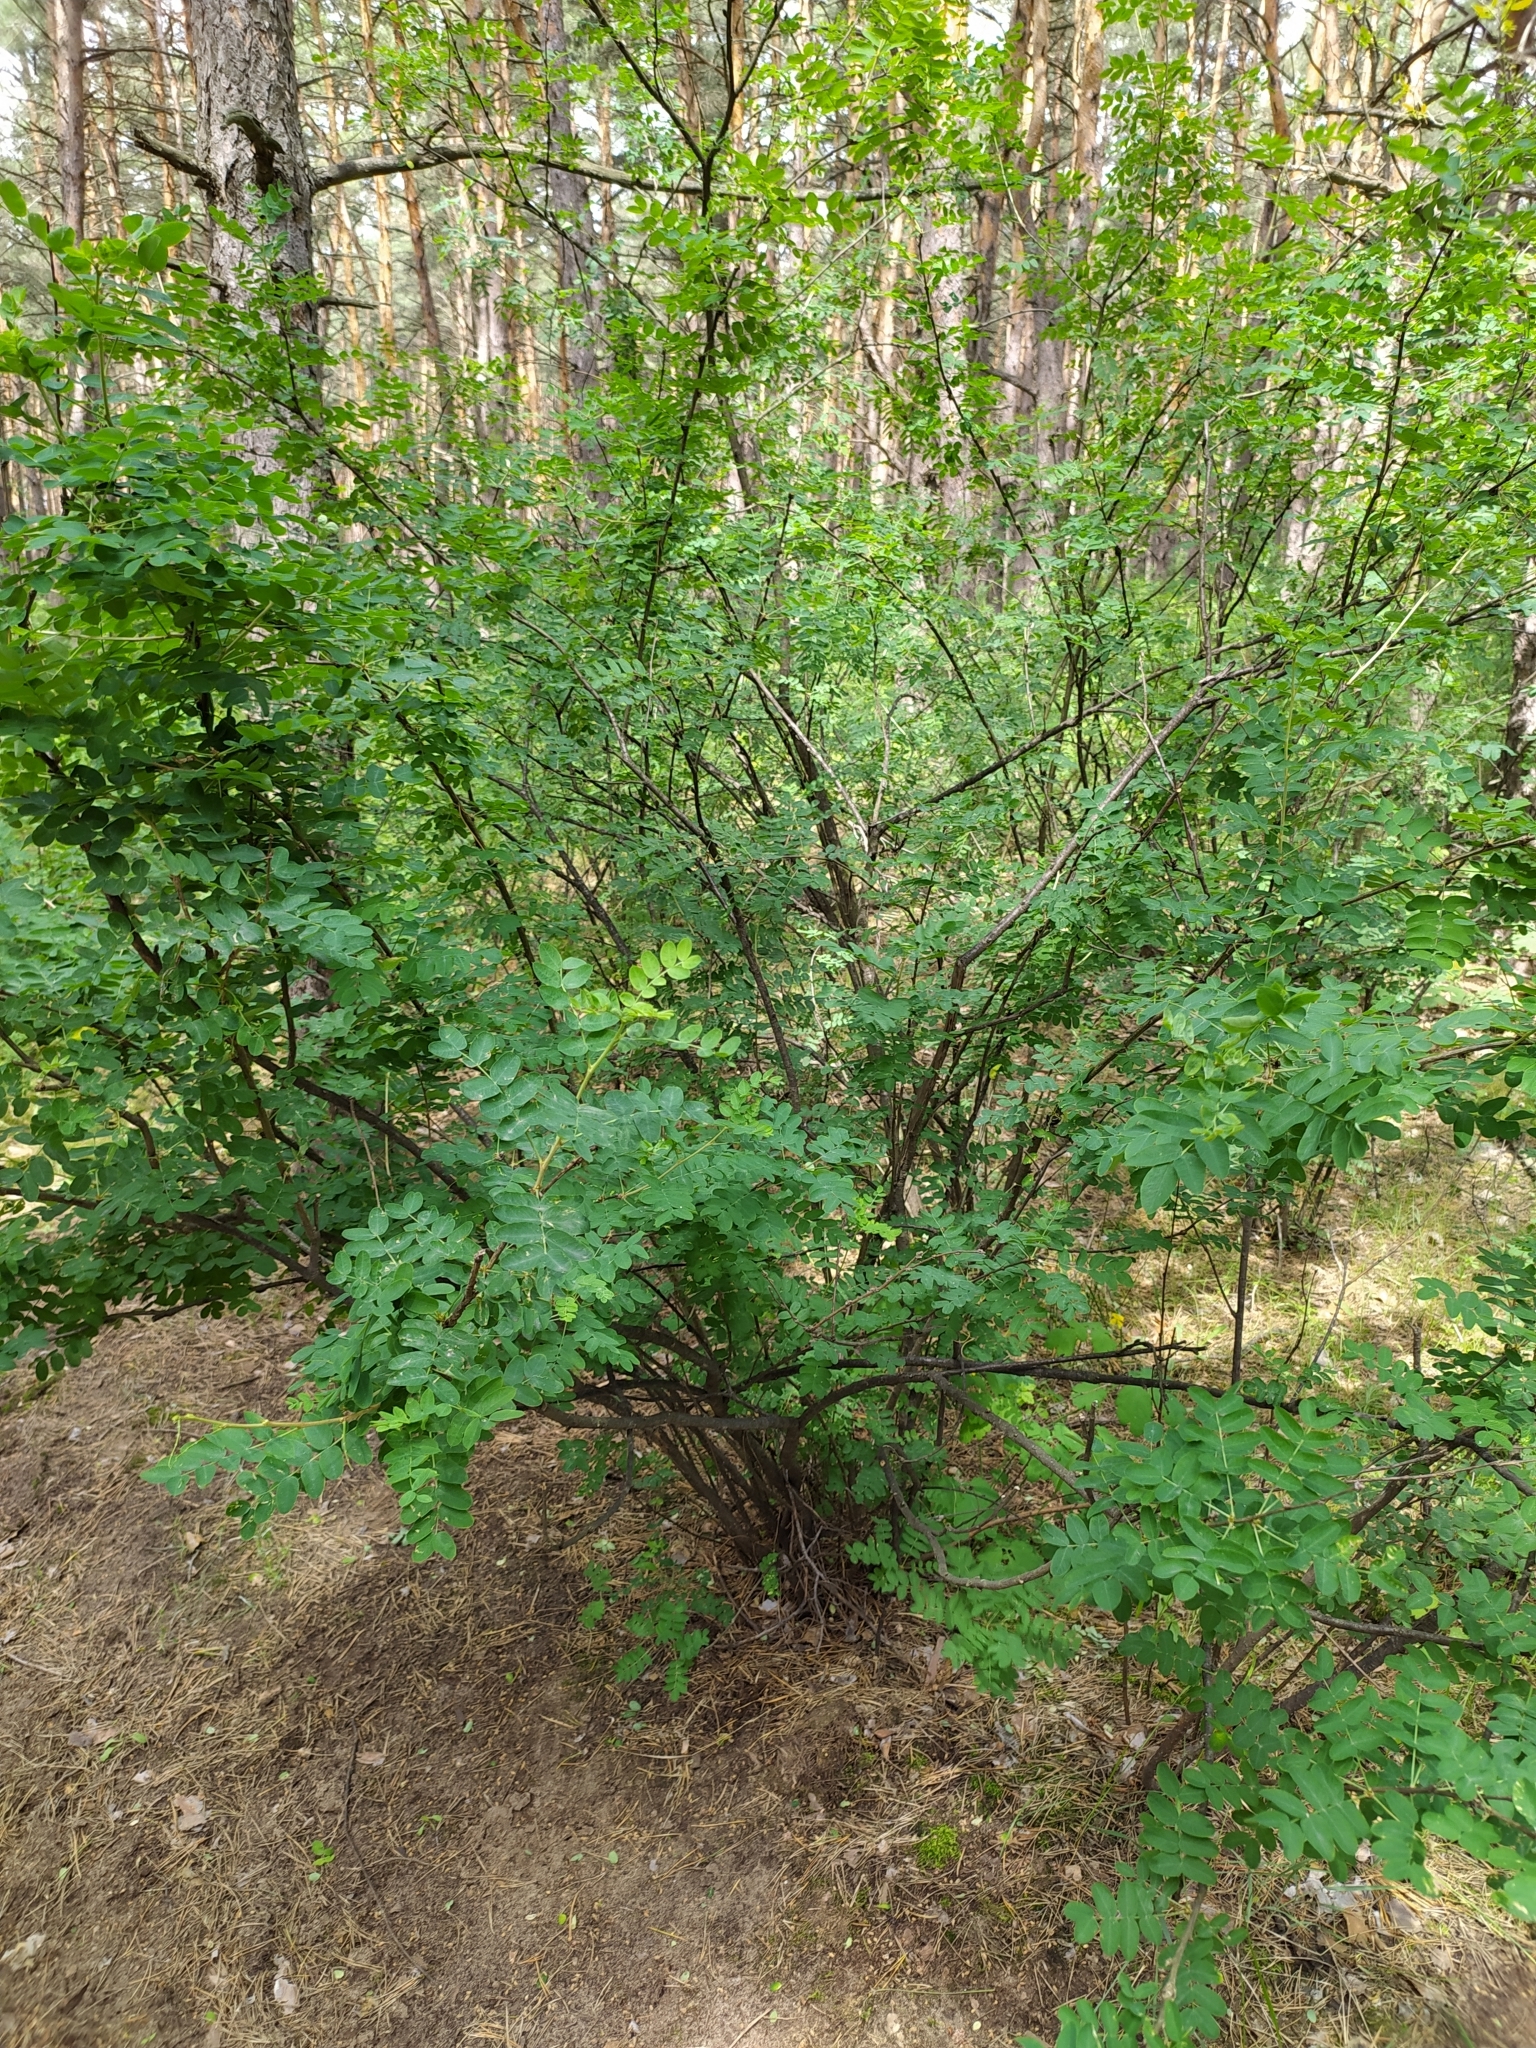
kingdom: Plantae
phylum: Tracheophyta
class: Magnoliopsida
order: Fabales
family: Fabaceae
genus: Caragana
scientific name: Caragana arborescens
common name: Siberian peashrub
